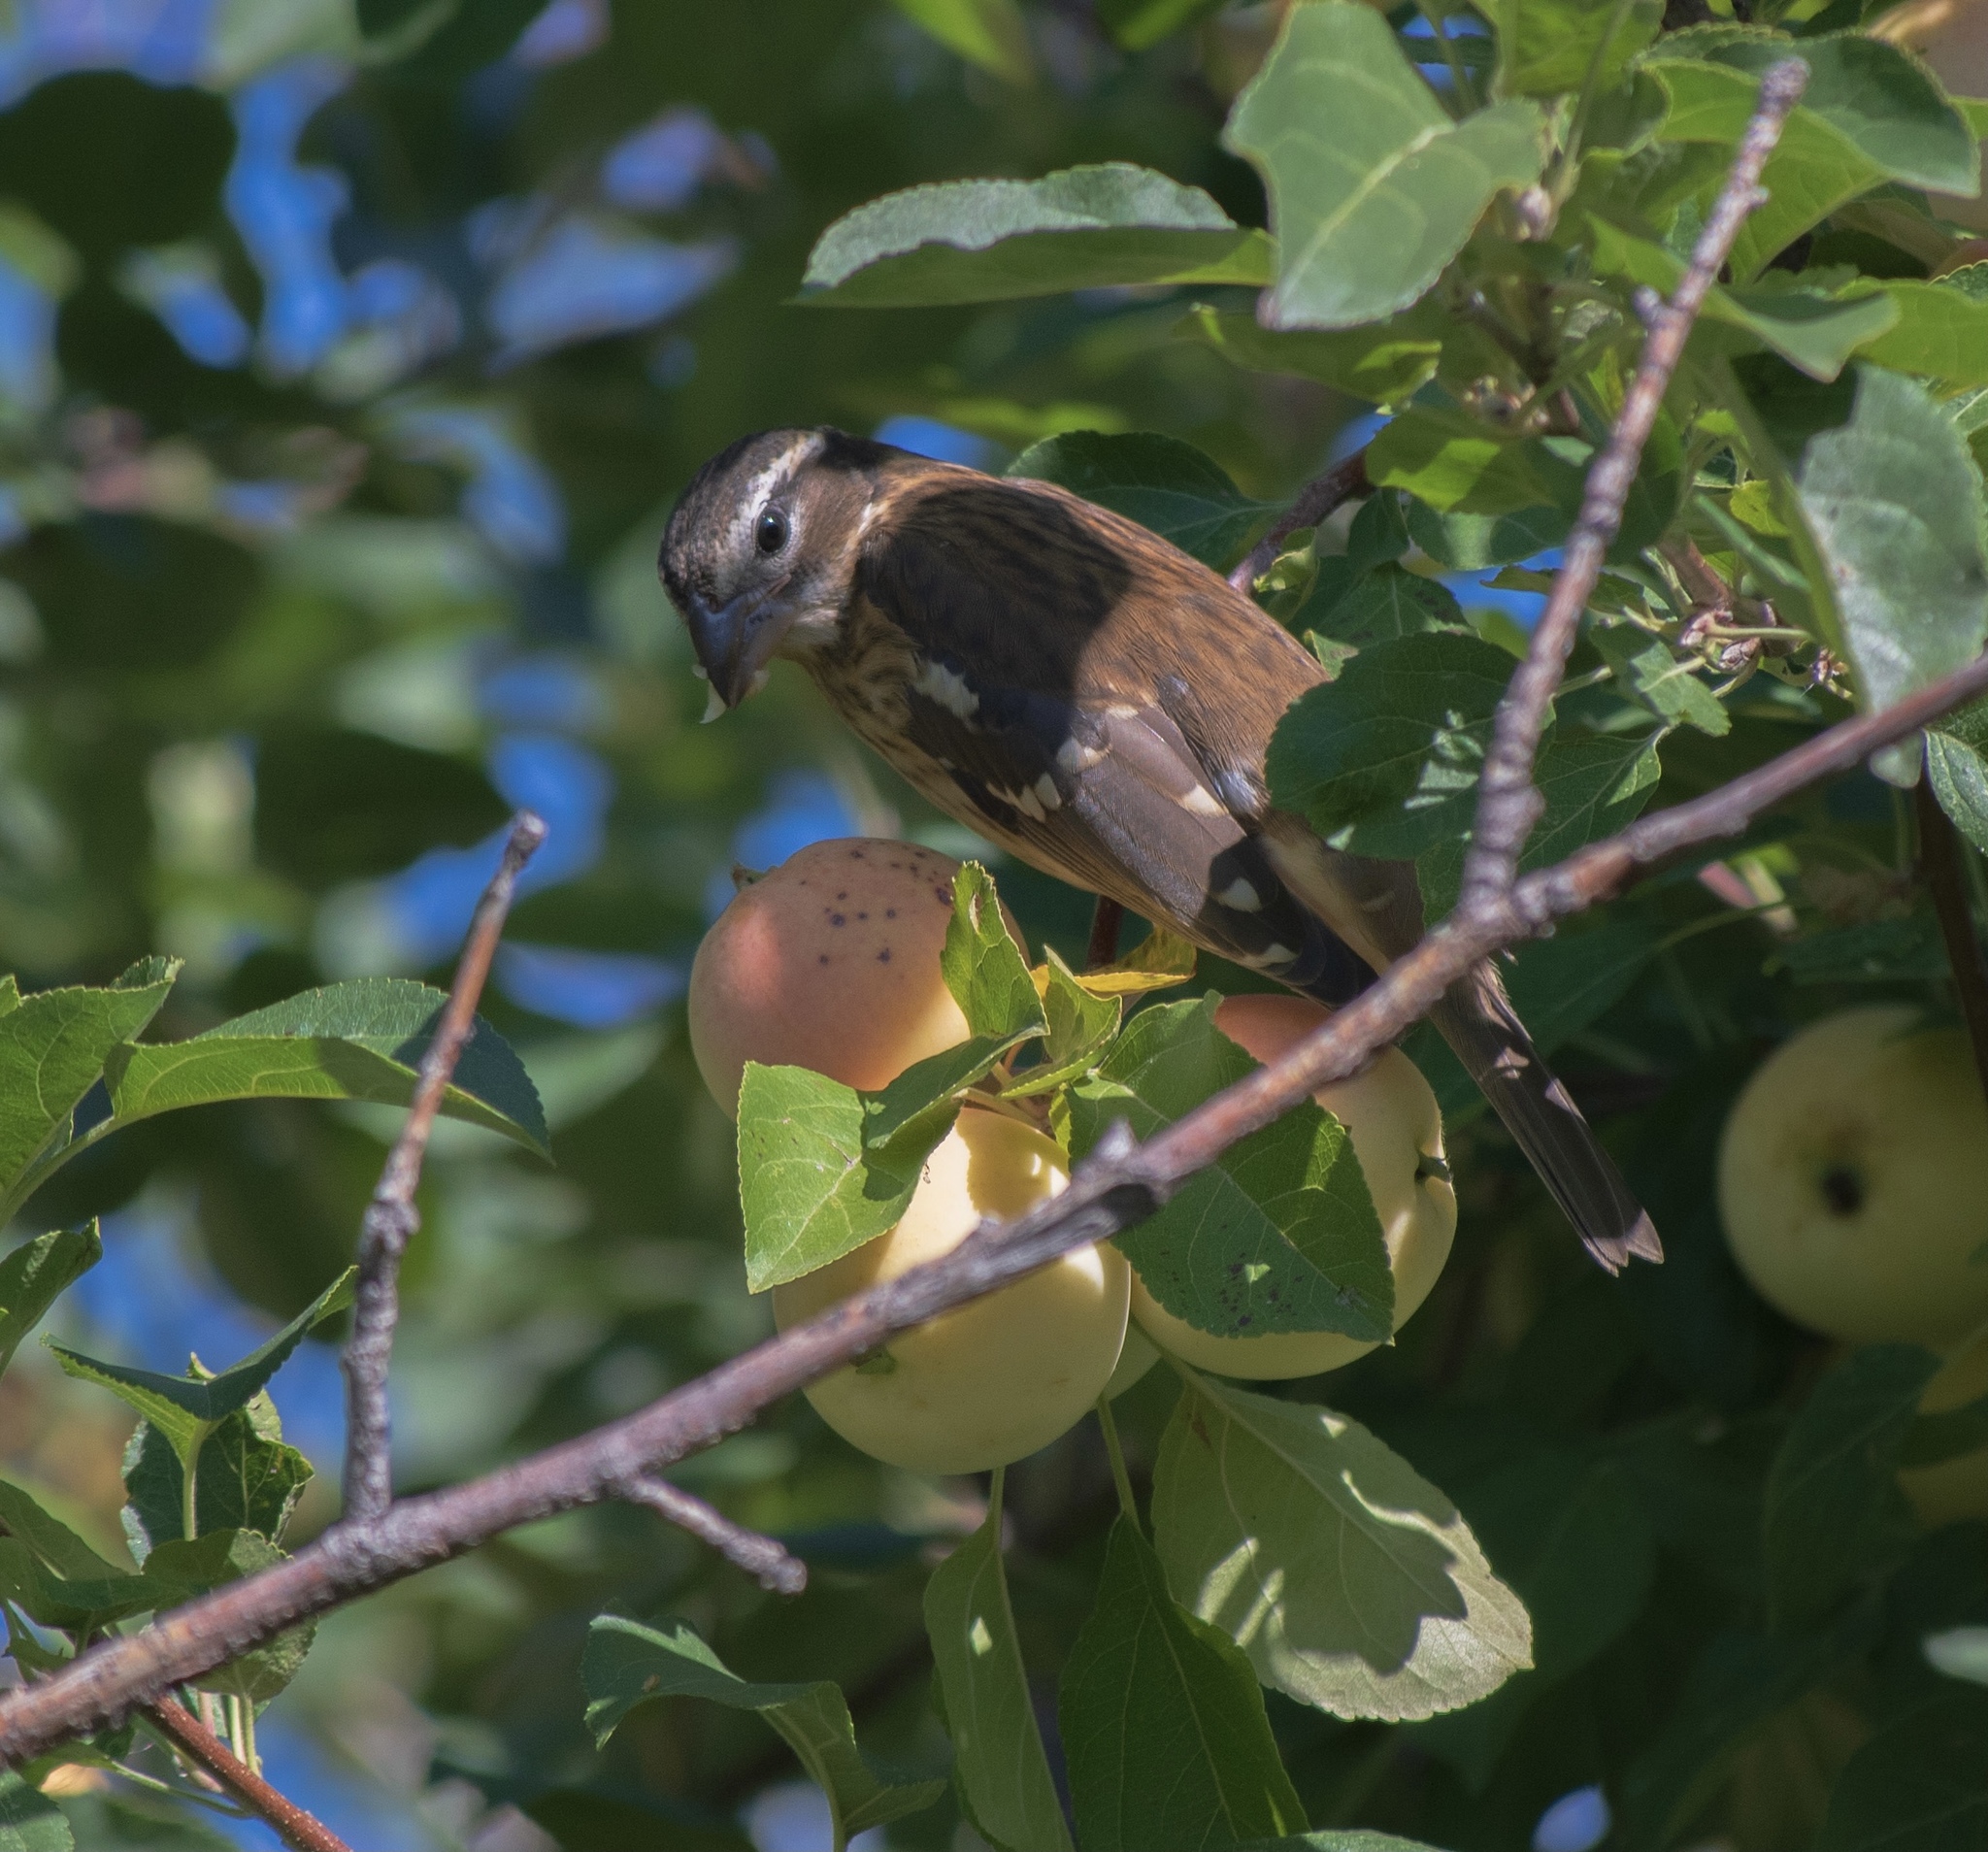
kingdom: Animalia
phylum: Chordata
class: Aves
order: Passeriformes
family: Cardinalidae
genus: Pheucticus
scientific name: Pheucticus ludovicianus
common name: Rose-breasted grosbeak
